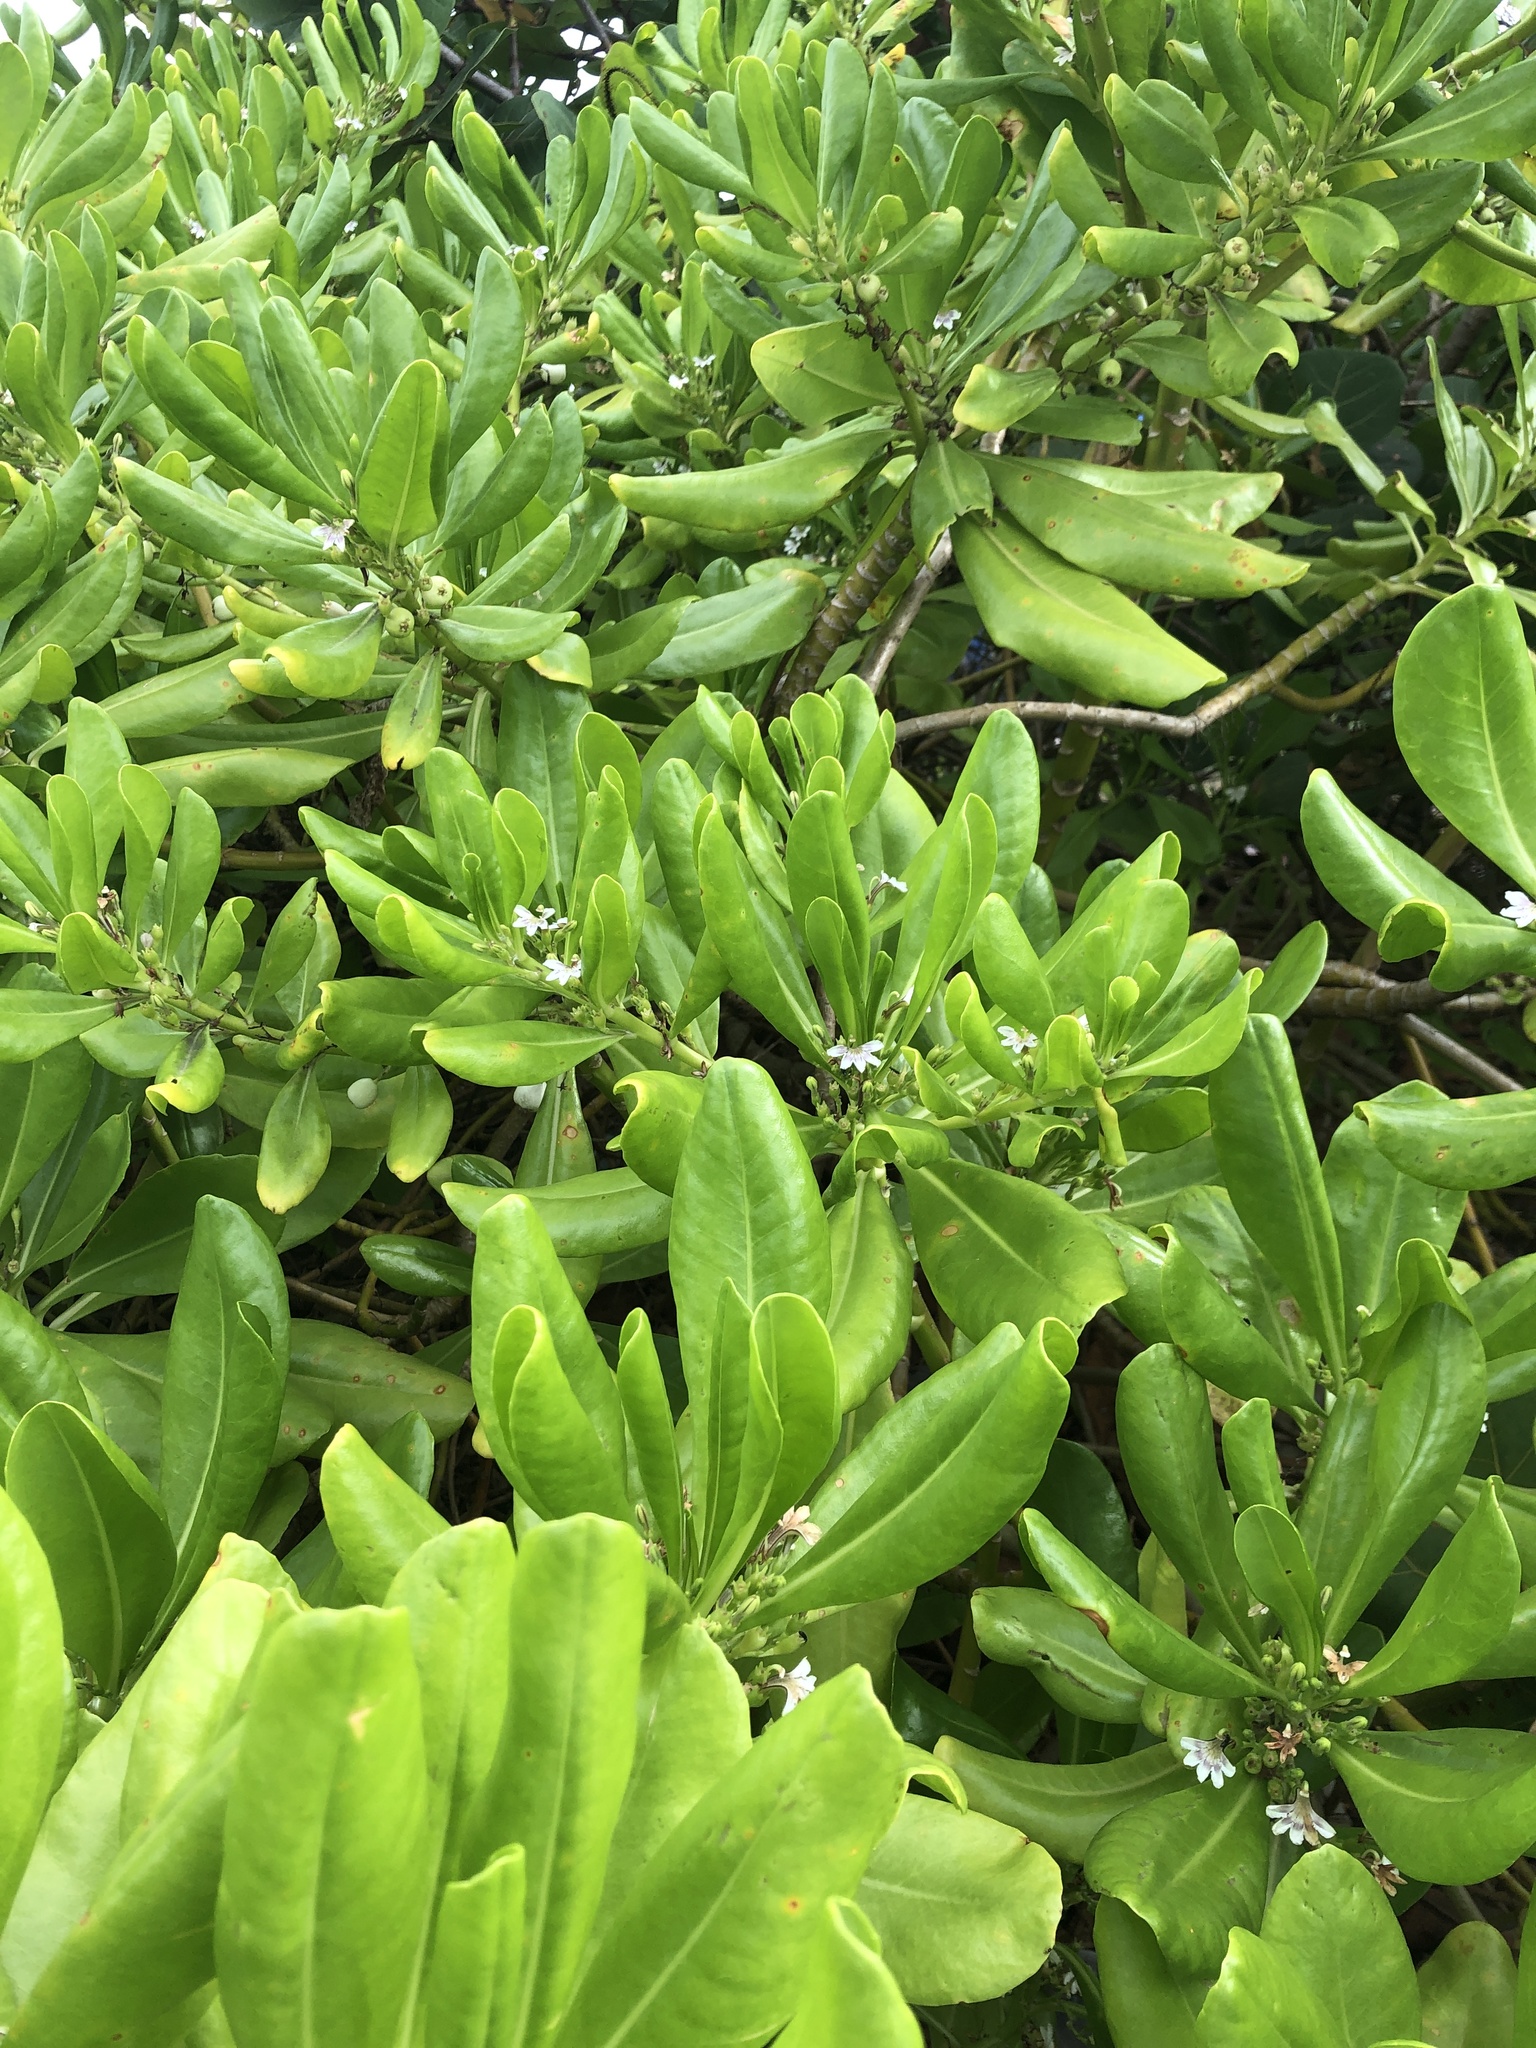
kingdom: Plantae
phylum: Tracheophyta
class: Magnoliopsida
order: Asterales
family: Goodeniaceae
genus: Scaevola
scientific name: Scaevola taccada
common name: Sea lettucetree
